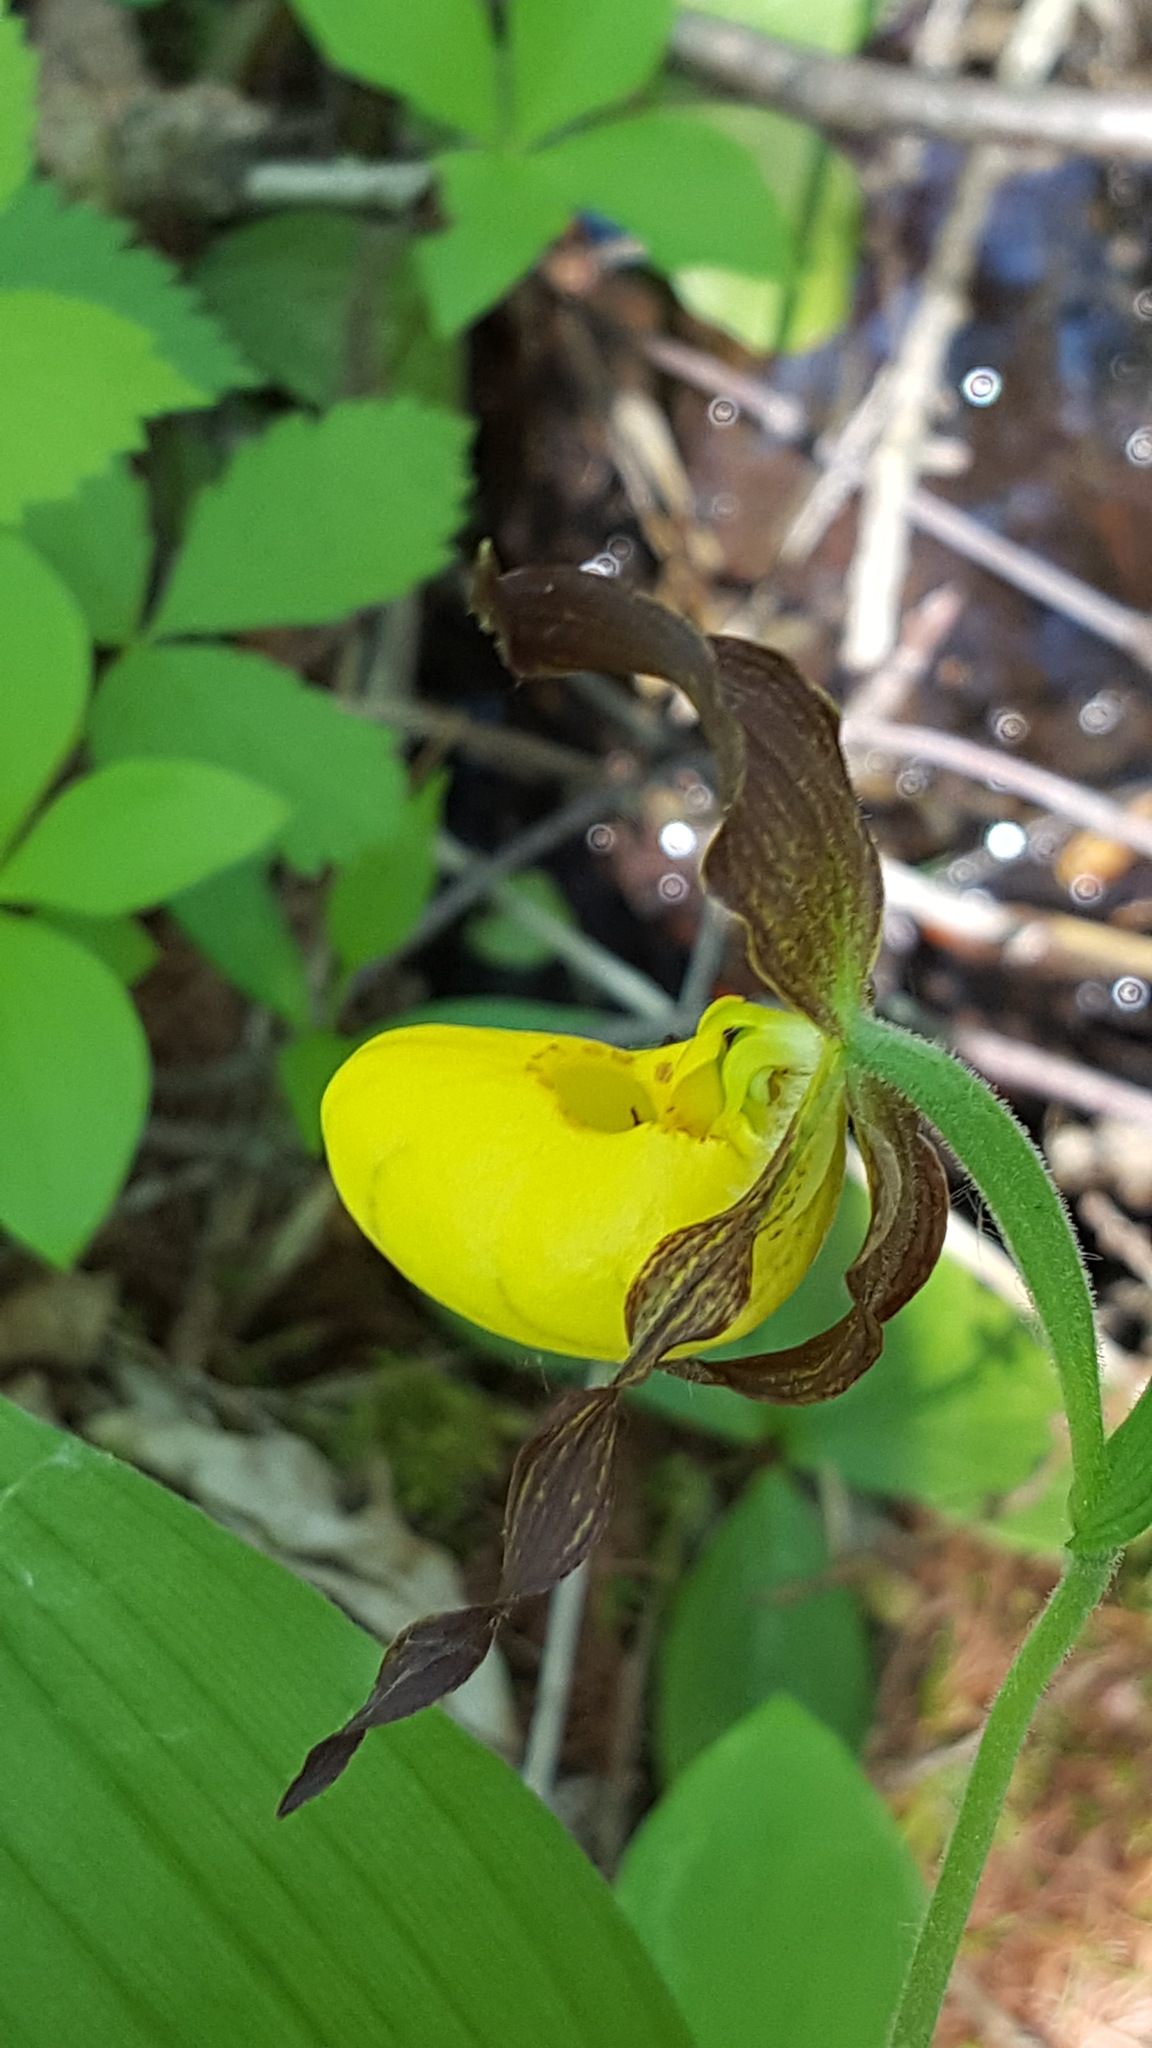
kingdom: Plantae
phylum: Tracheophyta
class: Liliopsida
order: Asparagales
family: Orchidaceae
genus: Cypripedium
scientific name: Cypripedium parviflorum
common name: American yellow lady's-slipper
